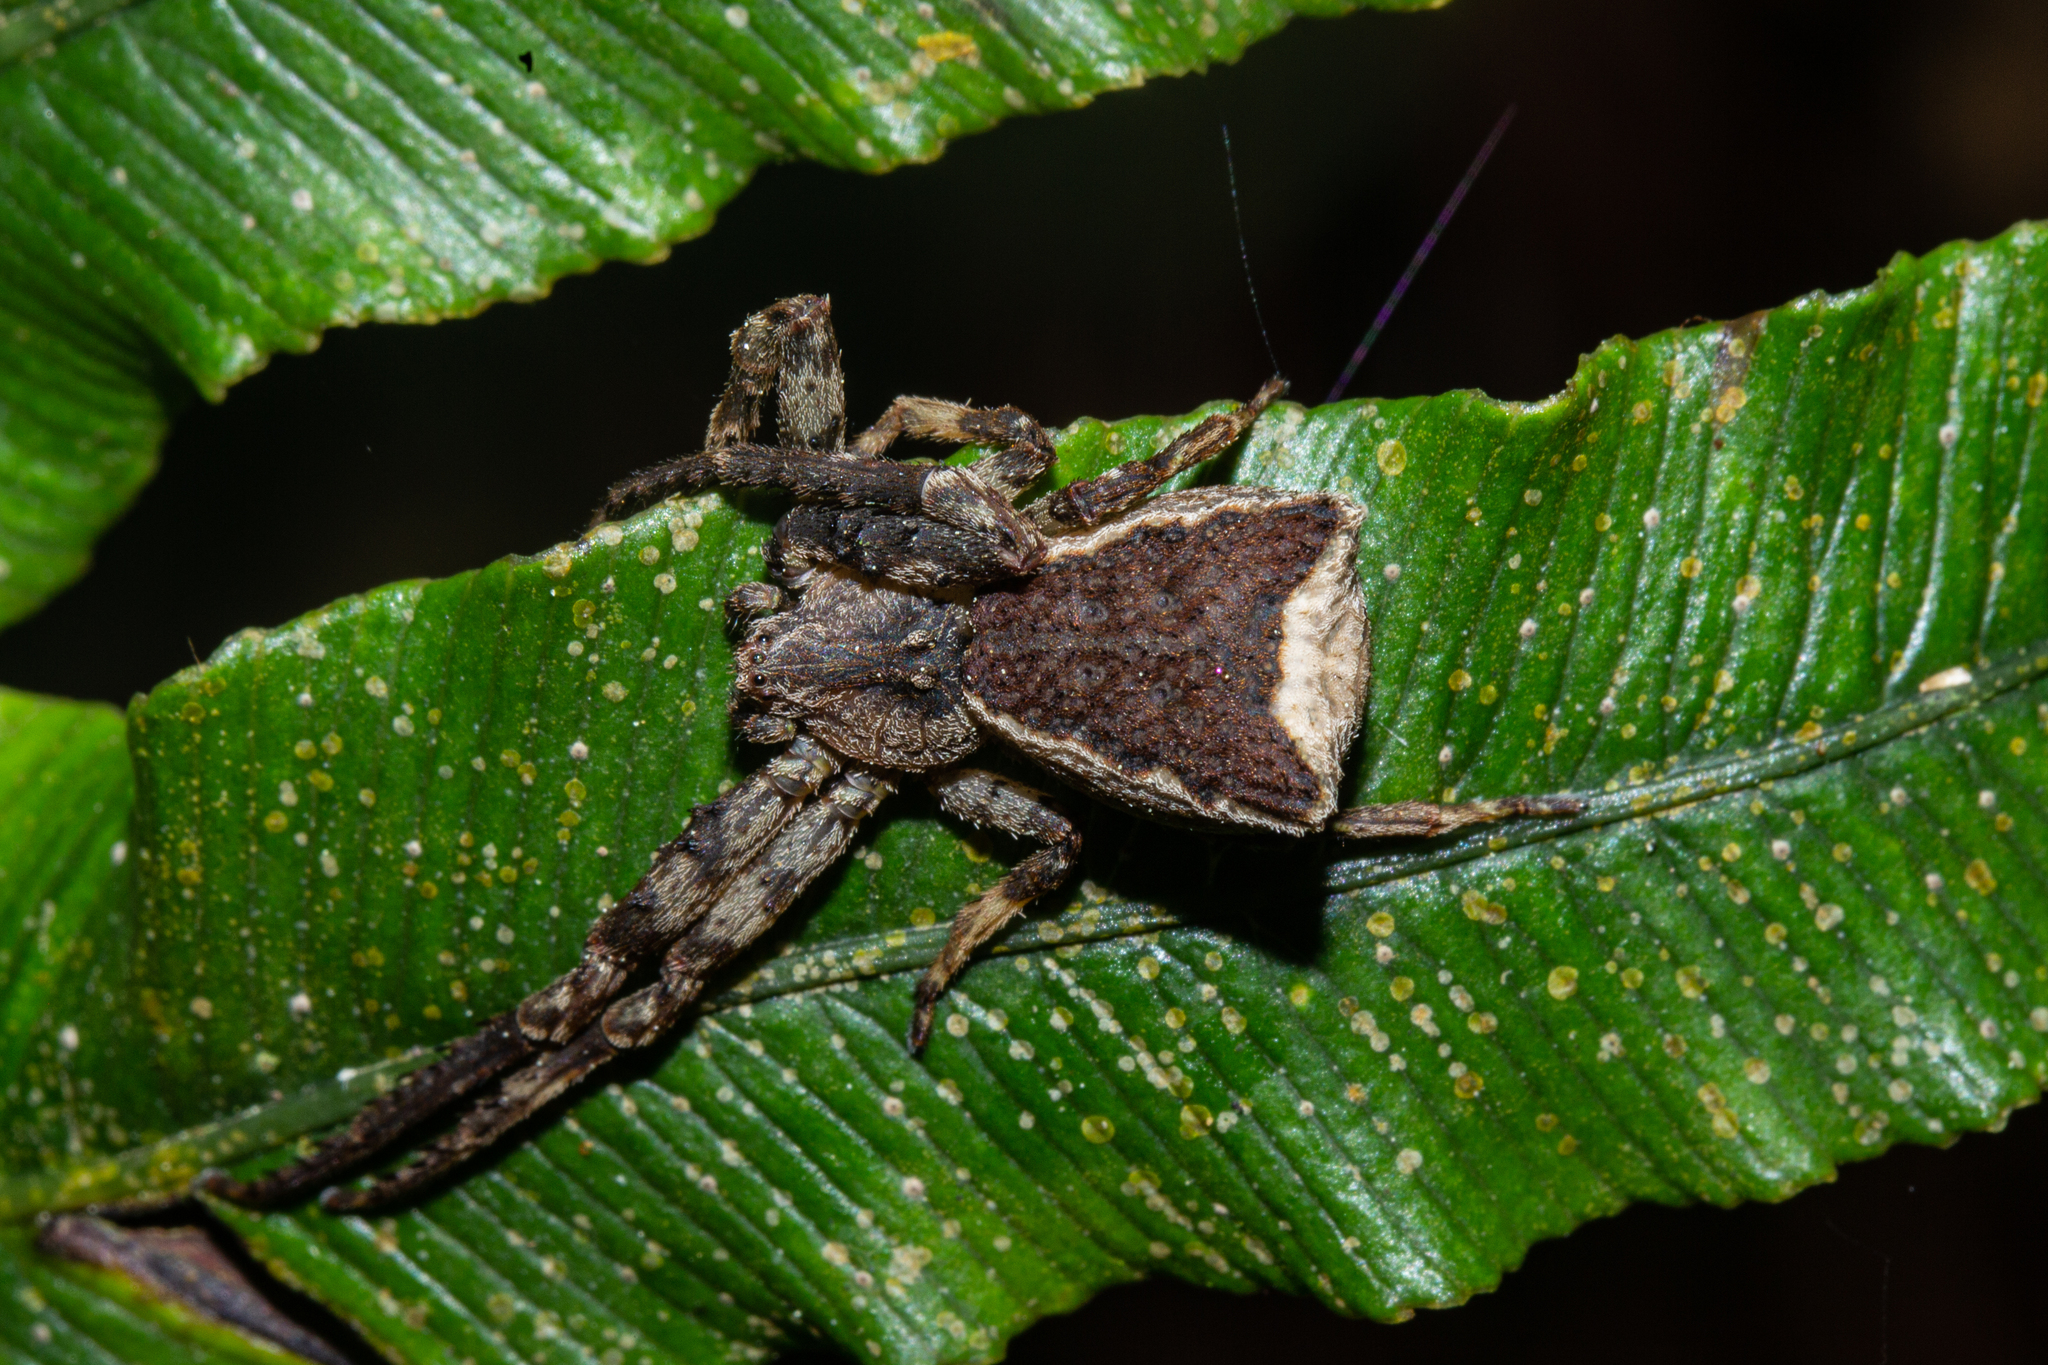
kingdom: Animalia
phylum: Arthropoda
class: Arachnida
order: Araneae
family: Thomisidae
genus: Sidymella
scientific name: Sidymella angularis
